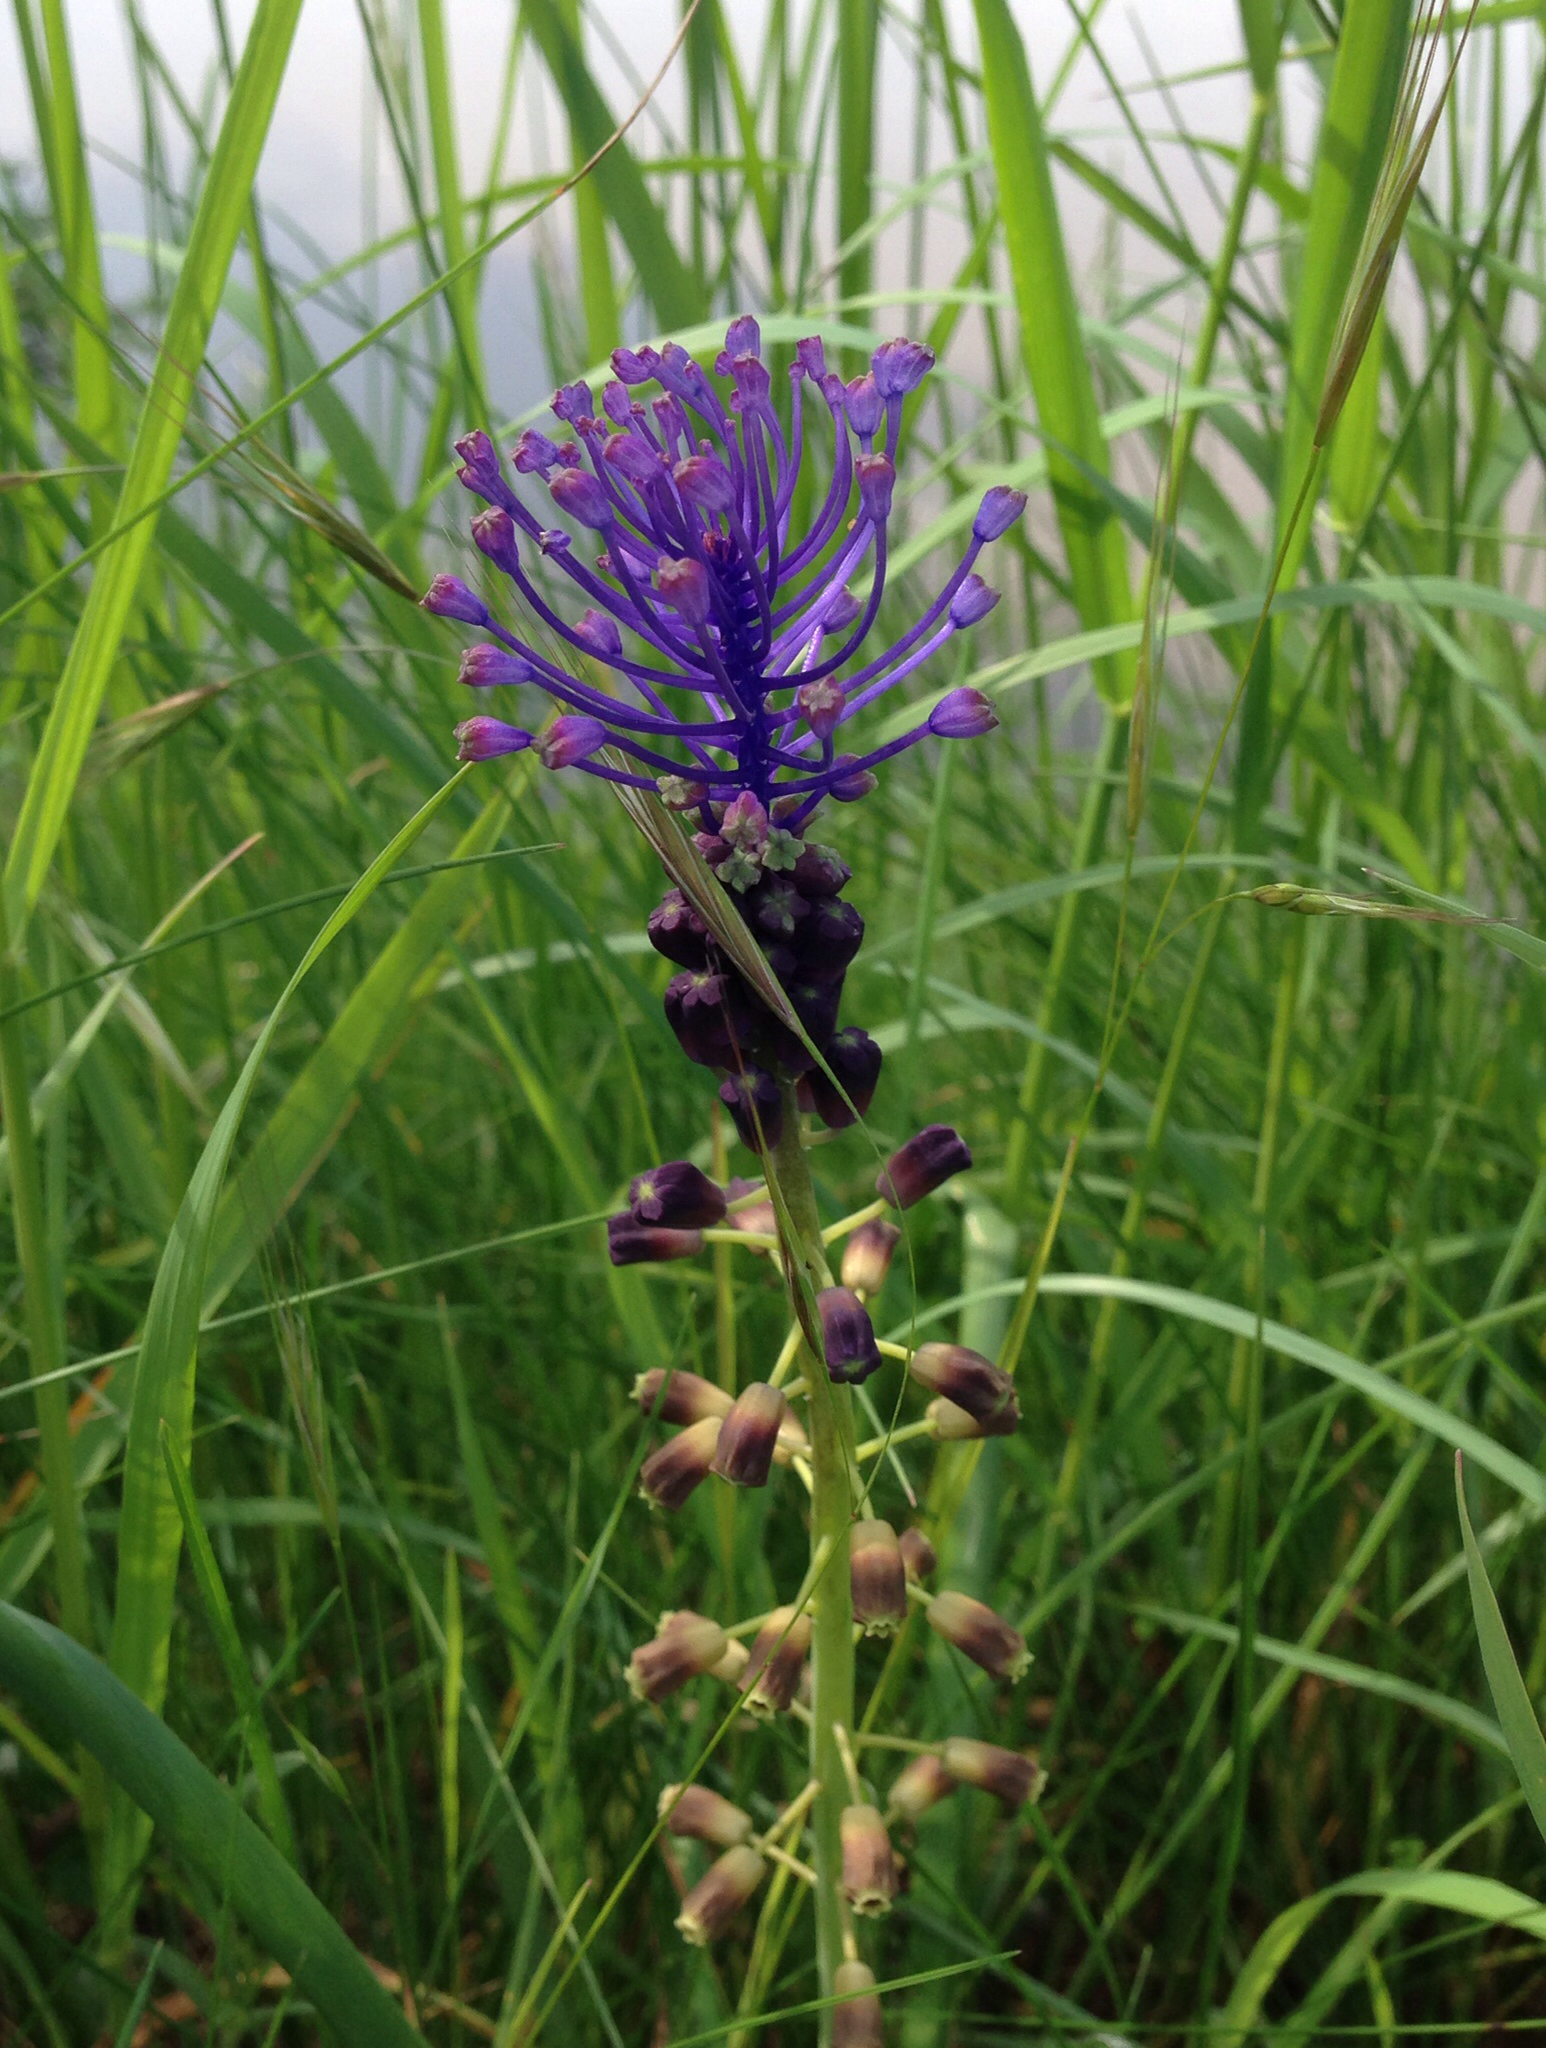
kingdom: Plantae
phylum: Tracheophyta
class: Liliopsida
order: Asparagales
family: Asparagaceae
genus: Muscari
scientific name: Muscari comosum
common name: Tassel hyacinth
